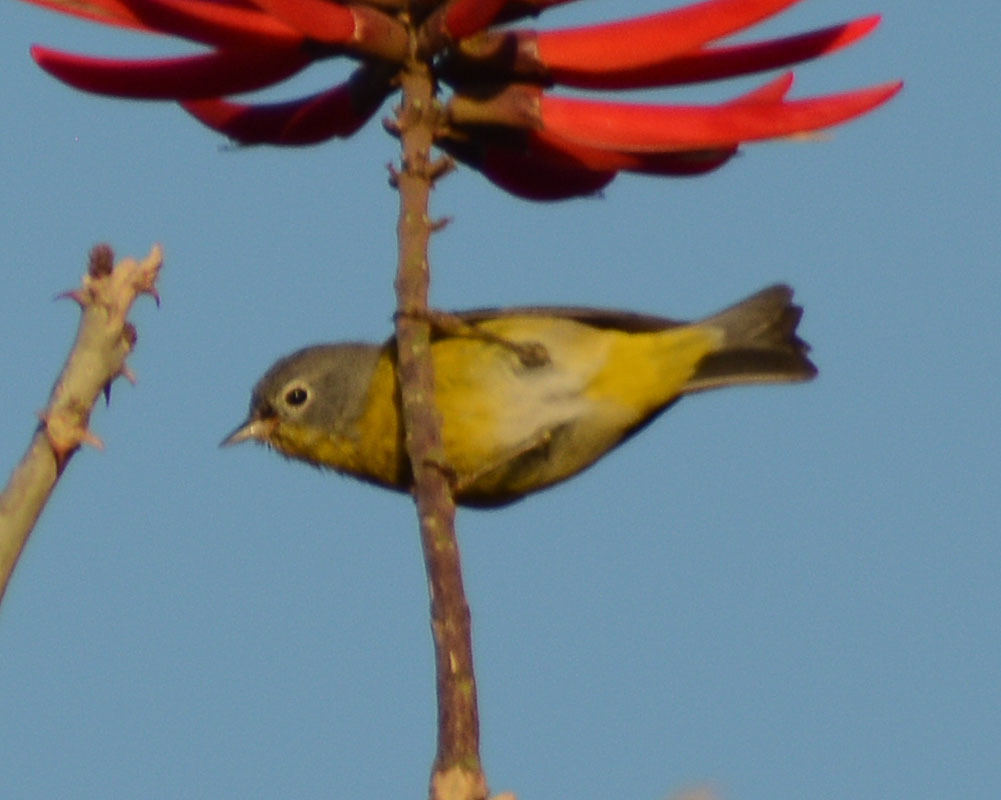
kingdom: Animalia
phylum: Chordata
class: Aves
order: Passeriformes
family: Parulidae
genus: Leiothlypis
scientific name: Leiothlypis ruficapilla
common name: Nashville warbler
